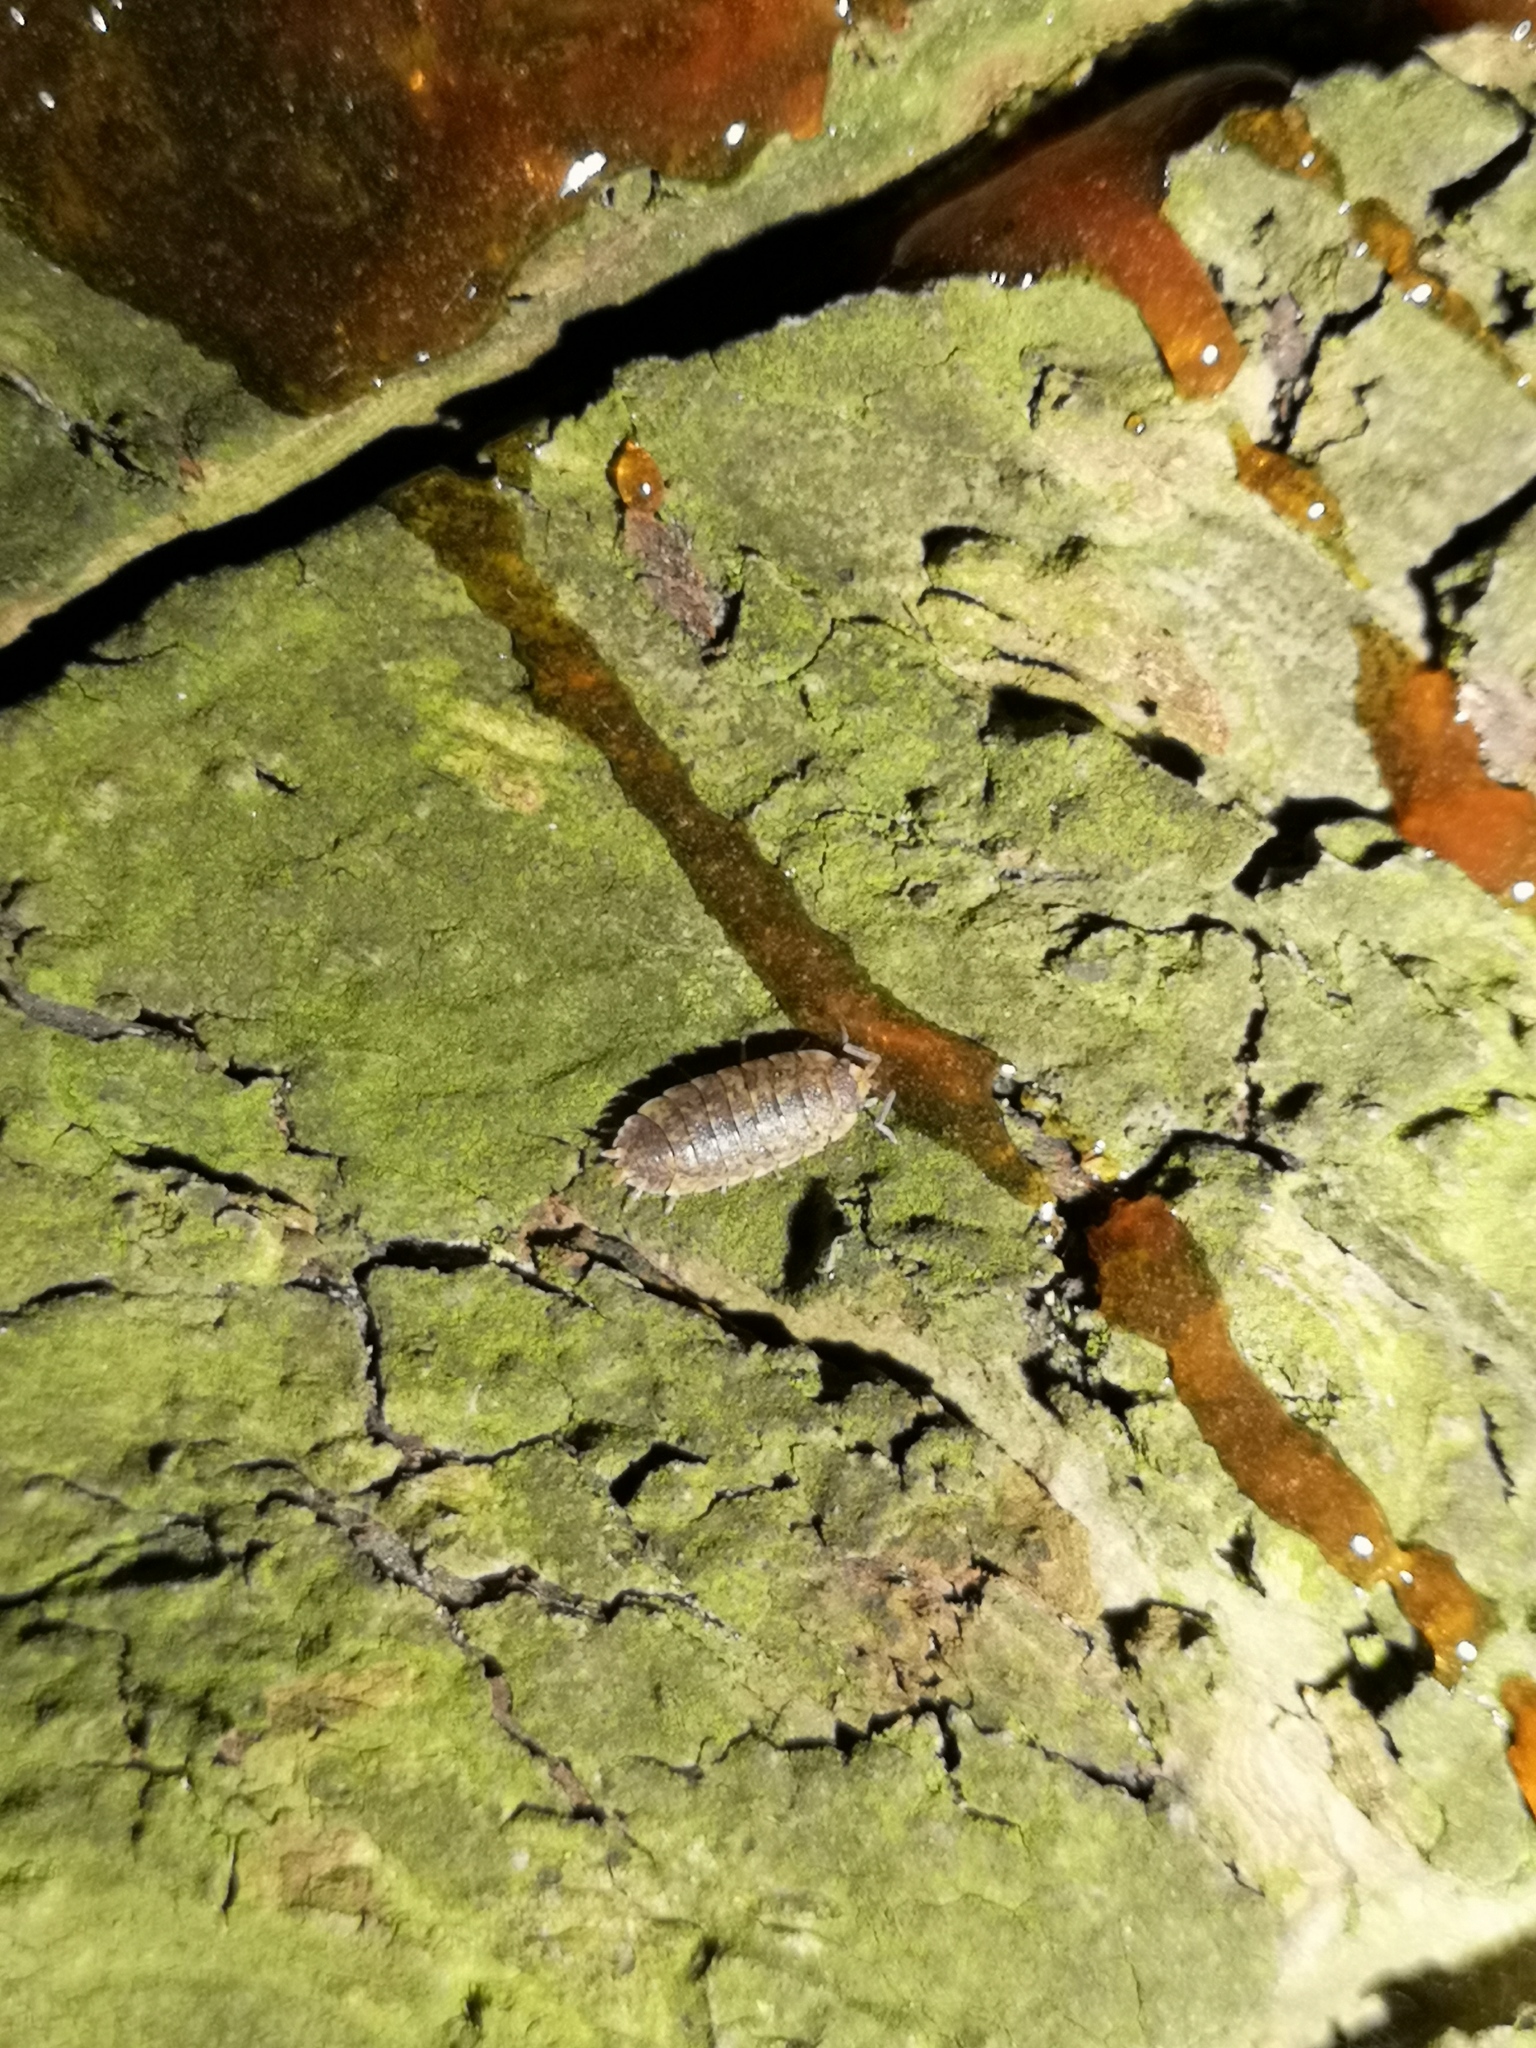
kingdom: Animalia
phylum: Arthropoda
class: Malacostraca
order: Isopoda
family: Porcellionidae
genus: Porcellio
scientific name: Porcellio scaber
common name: Common rough woodlouse
